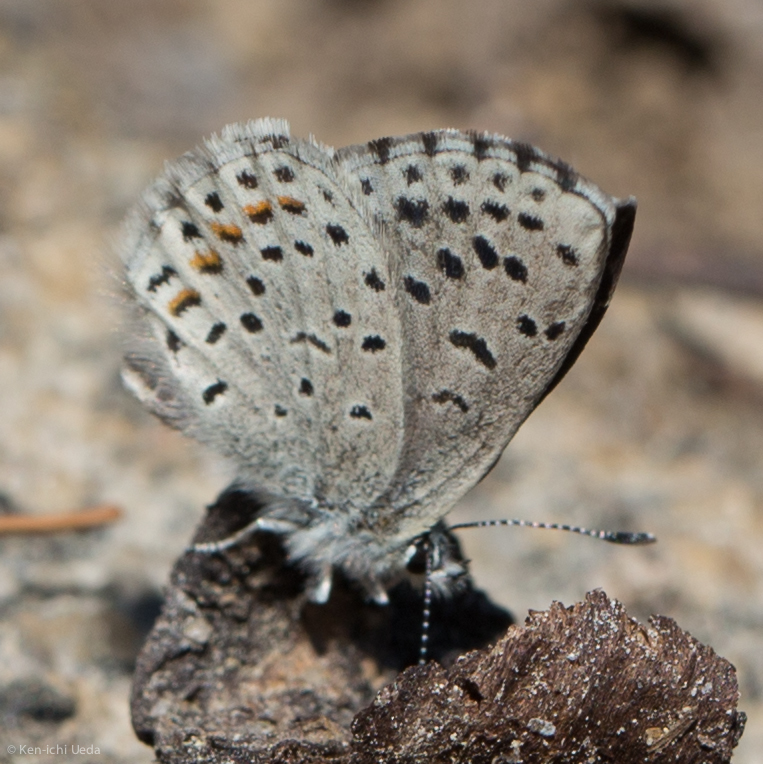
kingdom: Animalia
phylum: Arthropoda
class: Insecta
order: Lepidoptera
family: Lycaenidae
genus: Euphilotes
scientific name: Euphilotes enoptes
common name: Dotted blue
